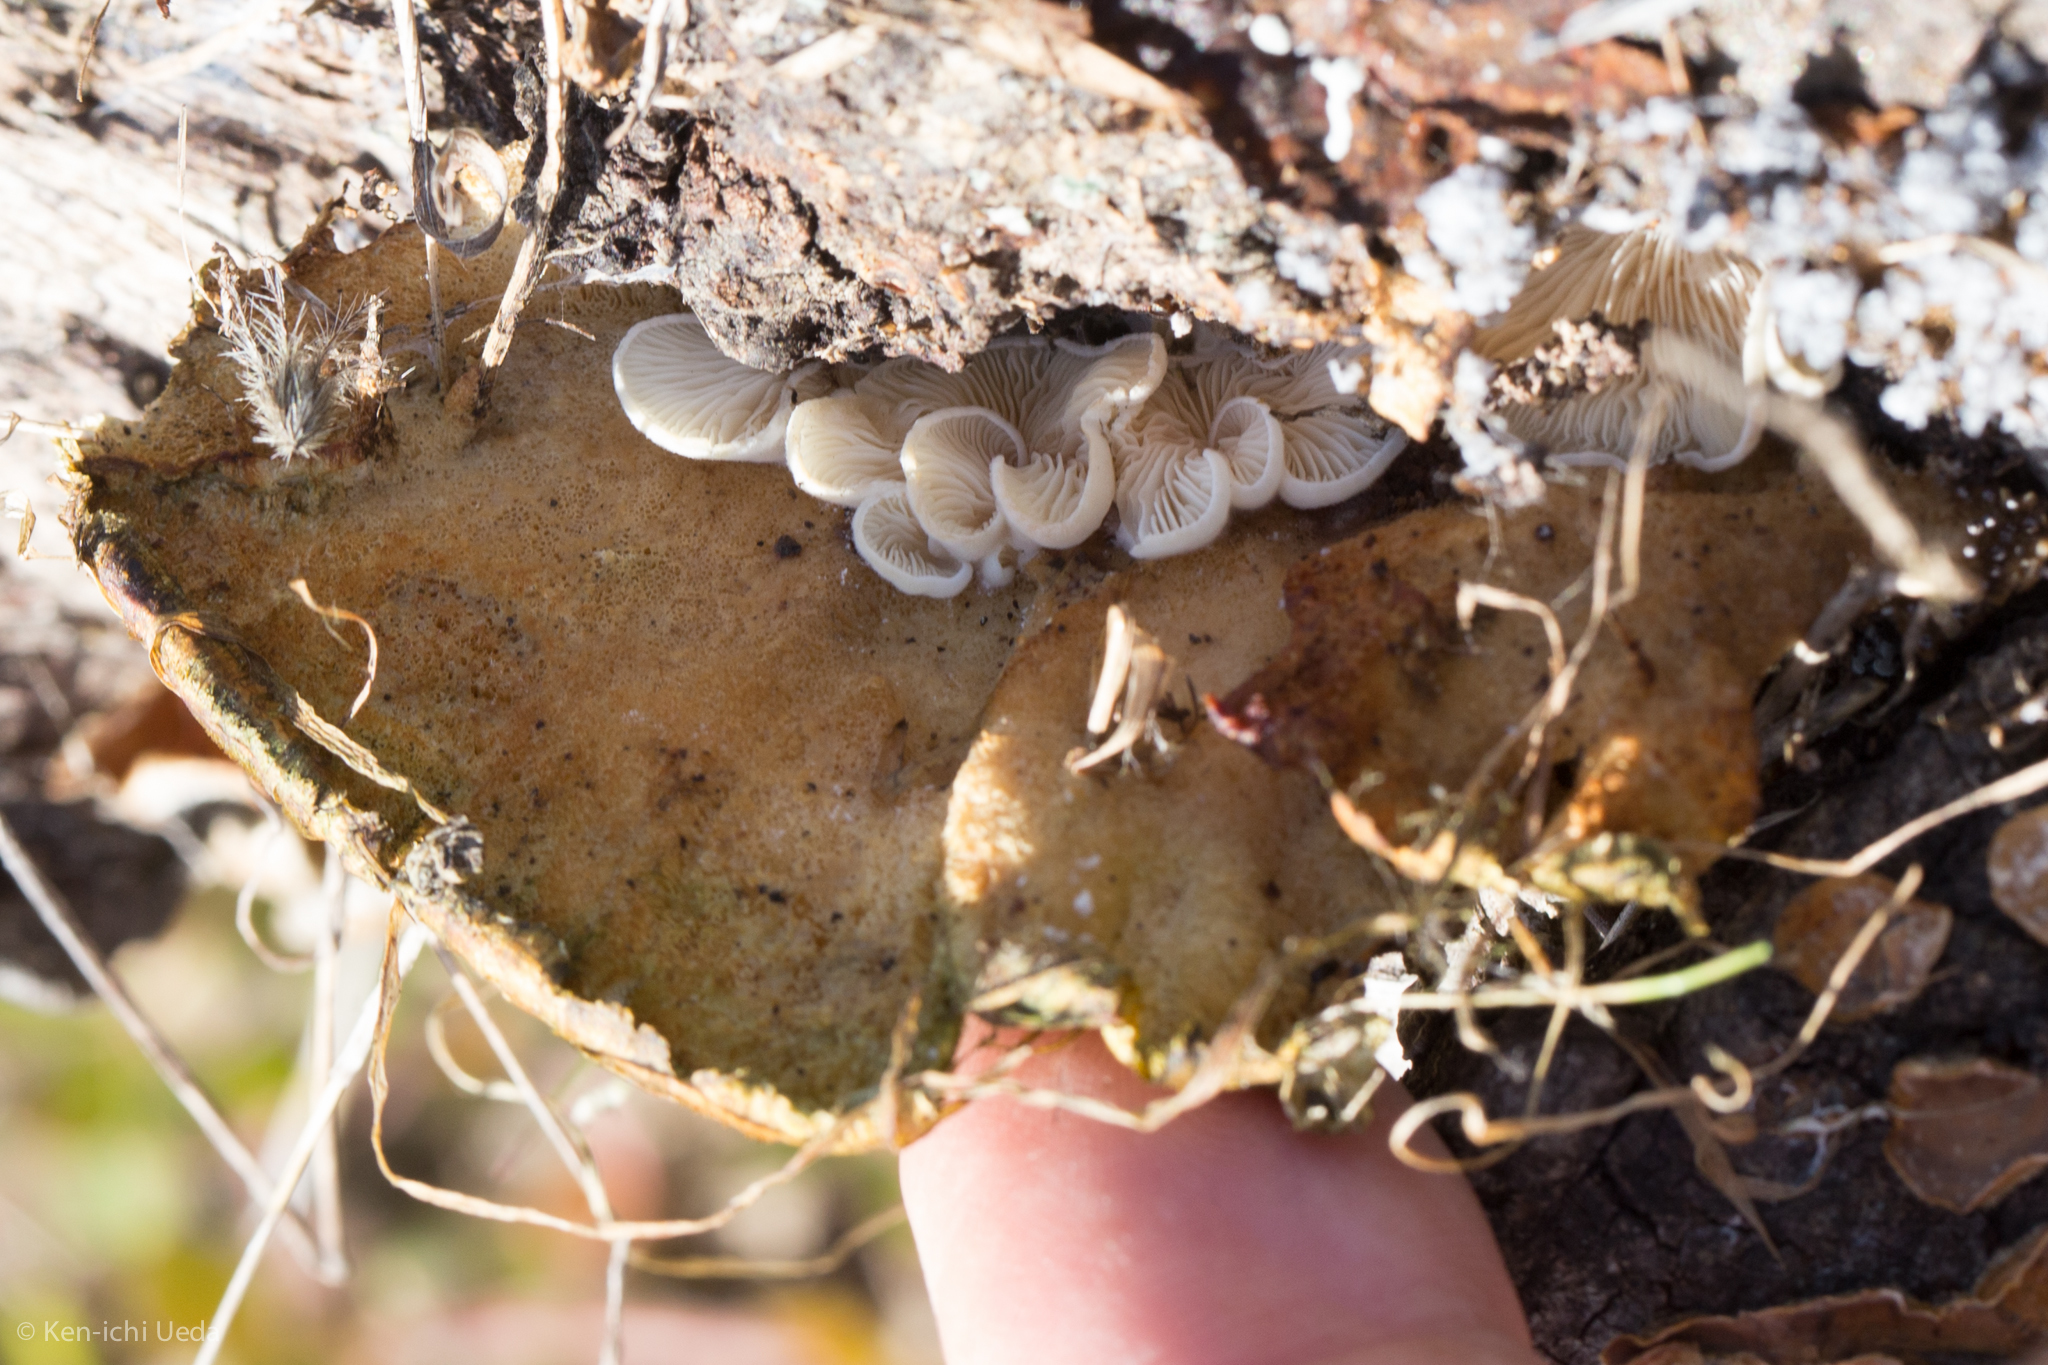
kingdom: Fungi
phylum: Basidiomycota
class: Agaricomycetes
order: Polyporales
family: Polyporaceae
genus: Trametes
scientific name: Trametes versicolor
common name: Turkeytail
